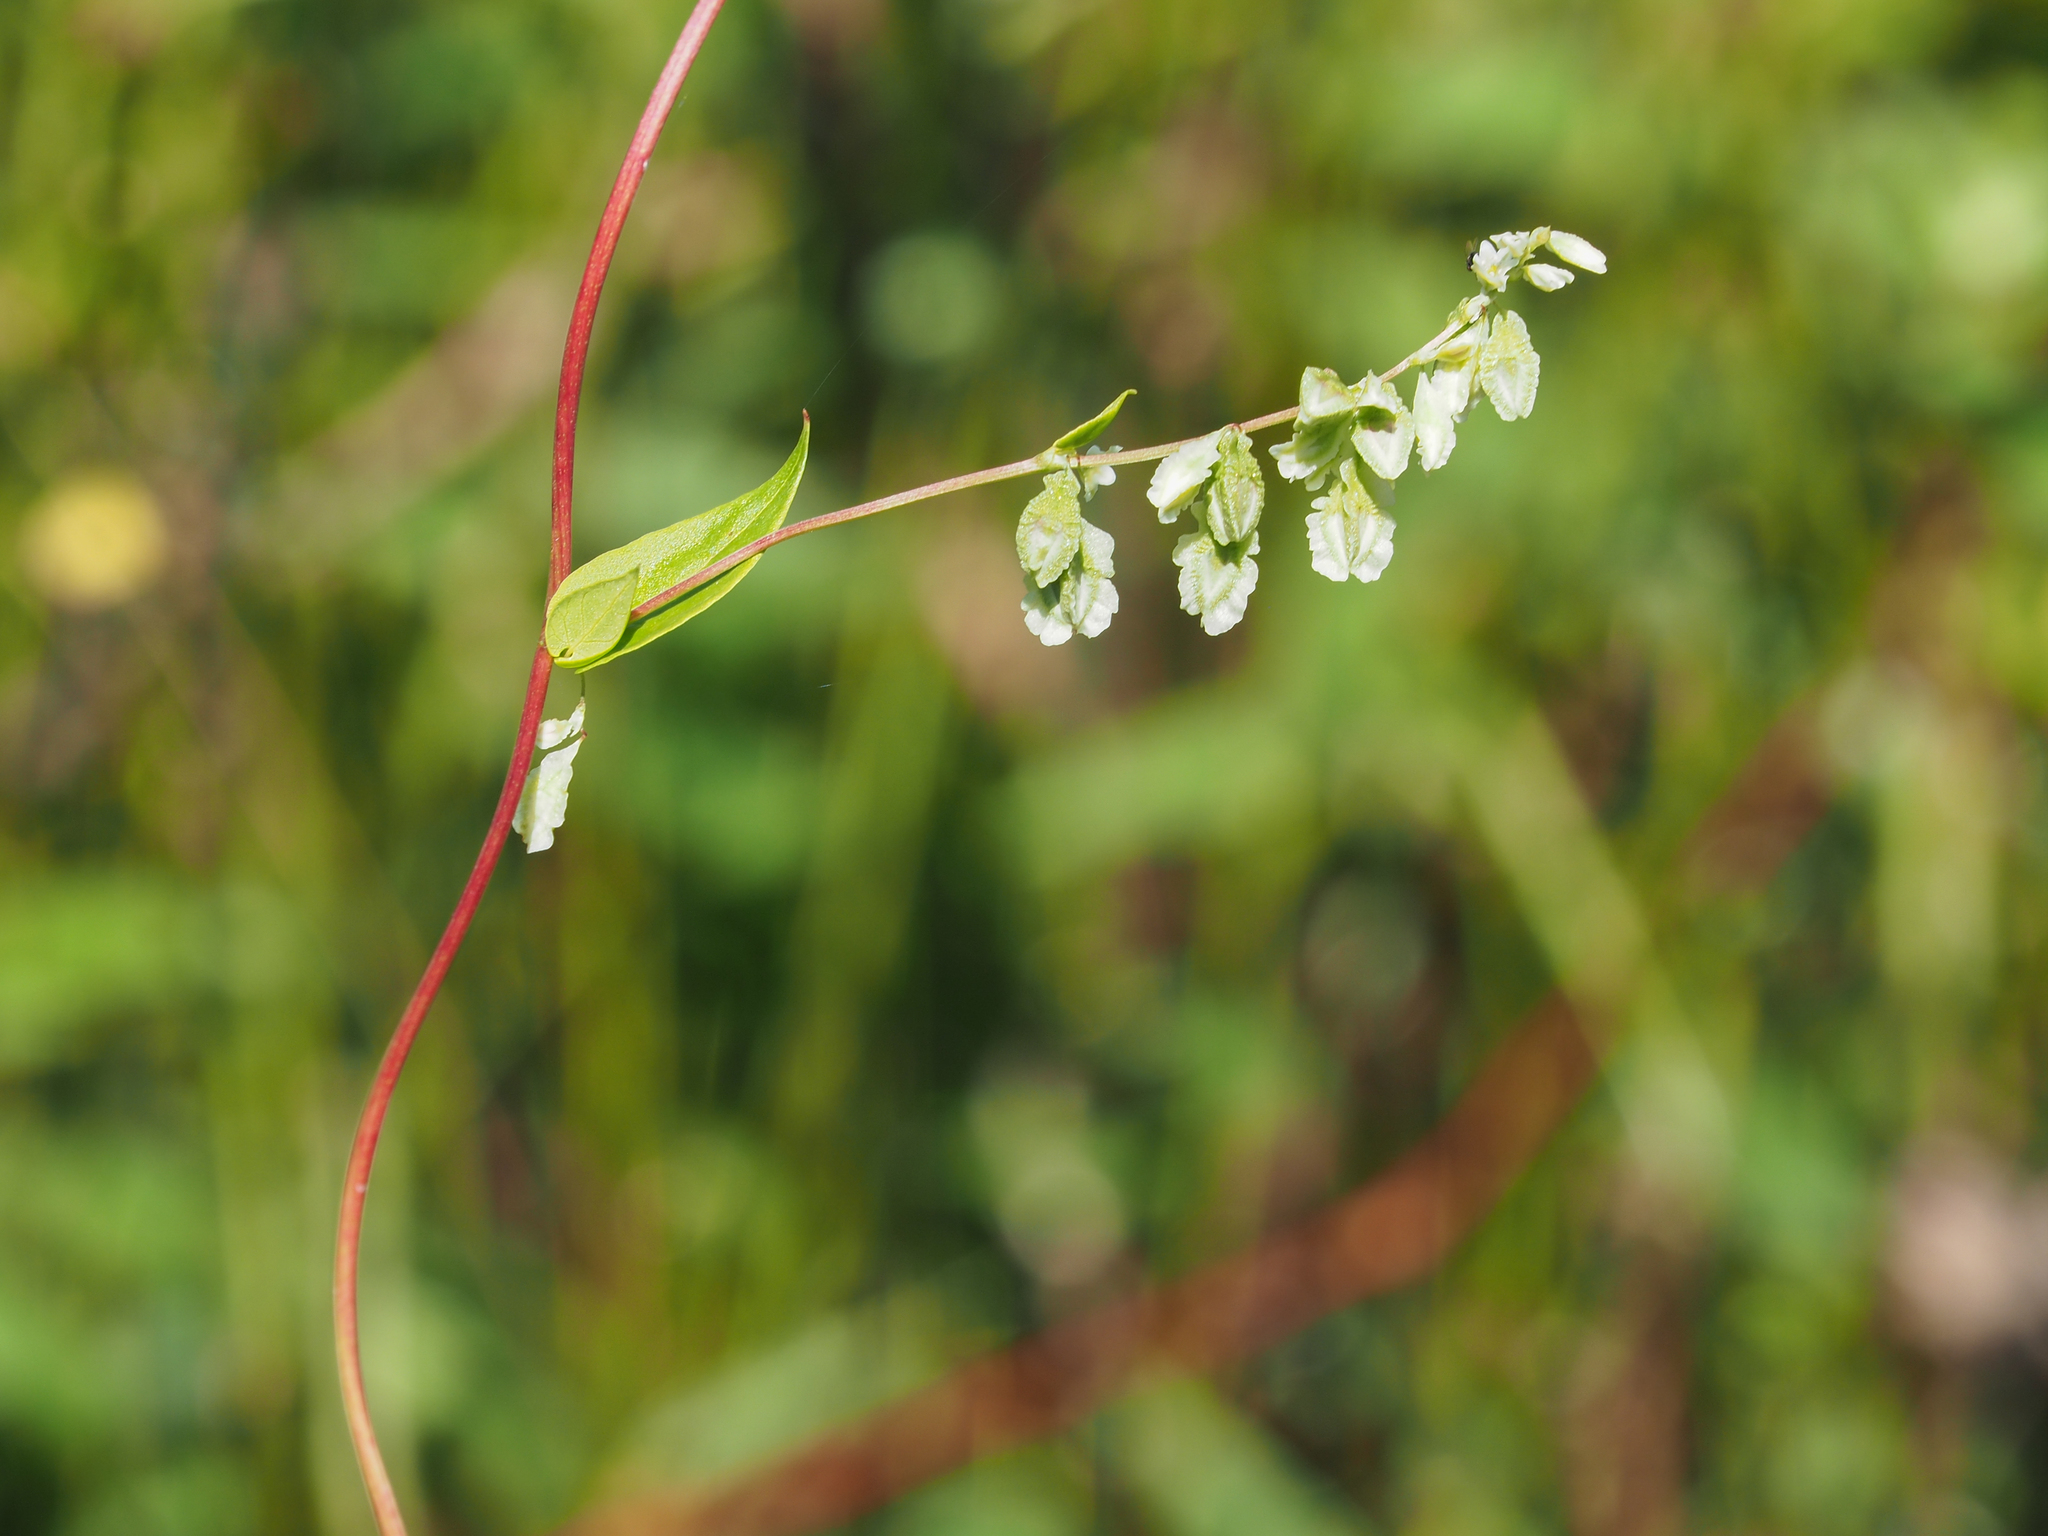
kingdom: Plantae
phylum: Tracheophyta
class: Magnoliopsida
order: Caryophyllales
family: Polygonaceae
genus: Fallopia
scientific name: Fallopia scandens
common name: Climbing false buckwheat
